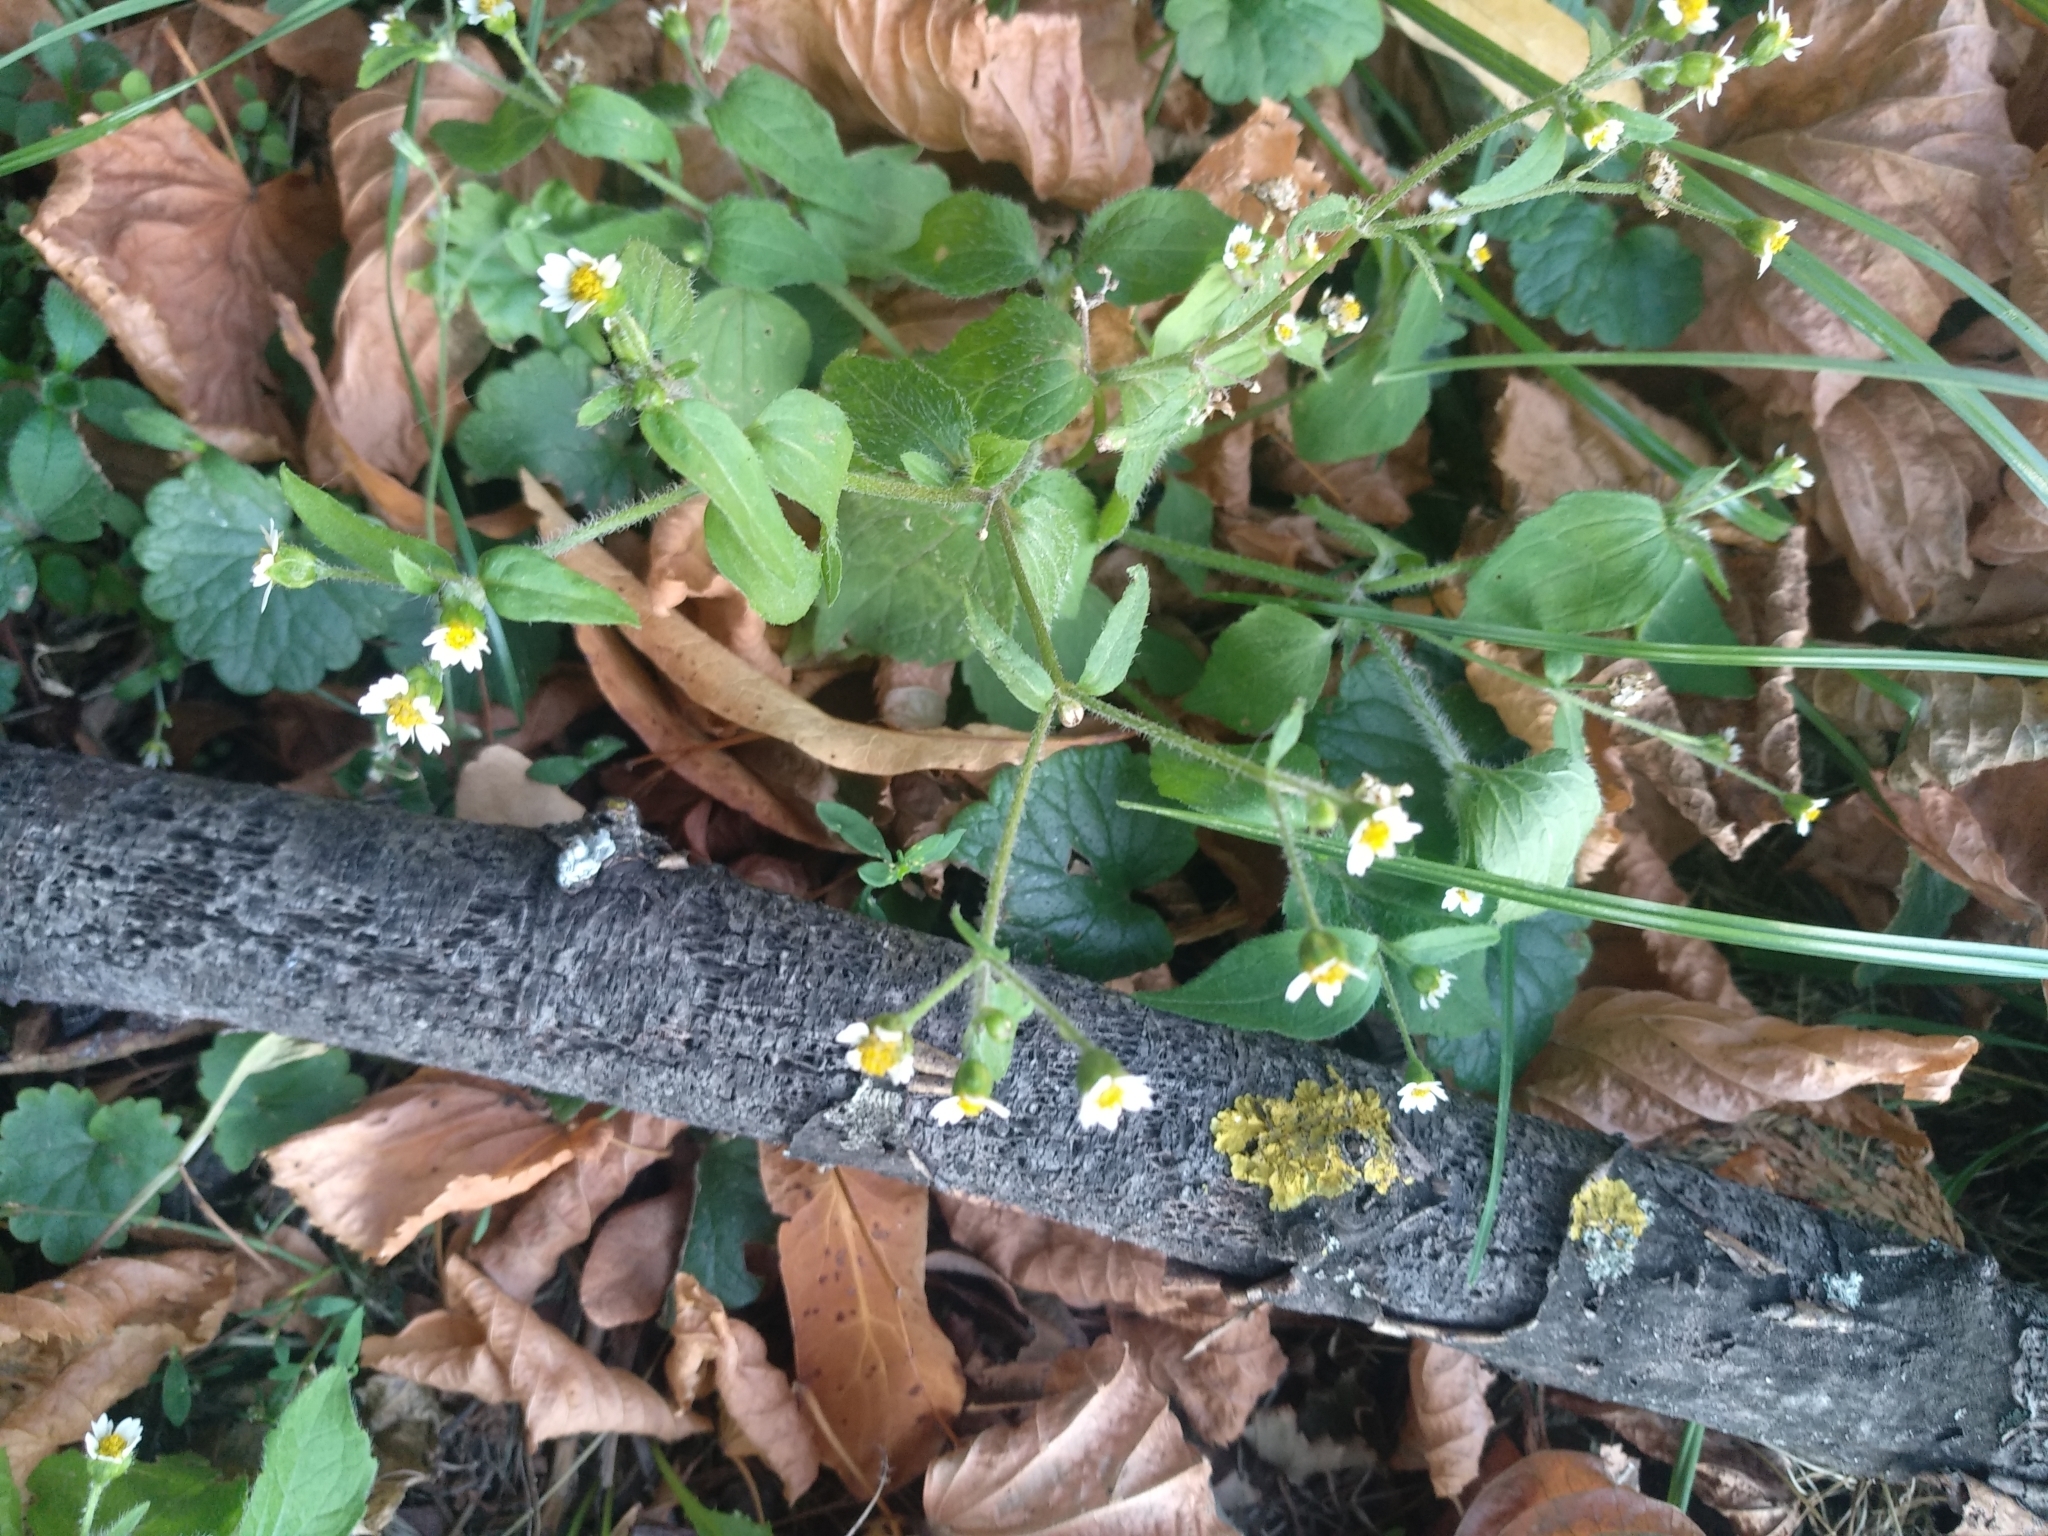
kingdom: Plantae
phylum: Tracheophyta
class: Magnoliopsida
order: Asterales
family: Asteraceae
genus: Galinsoga
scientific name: Galinsoga quadriradiata
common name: Shaggy soldier
